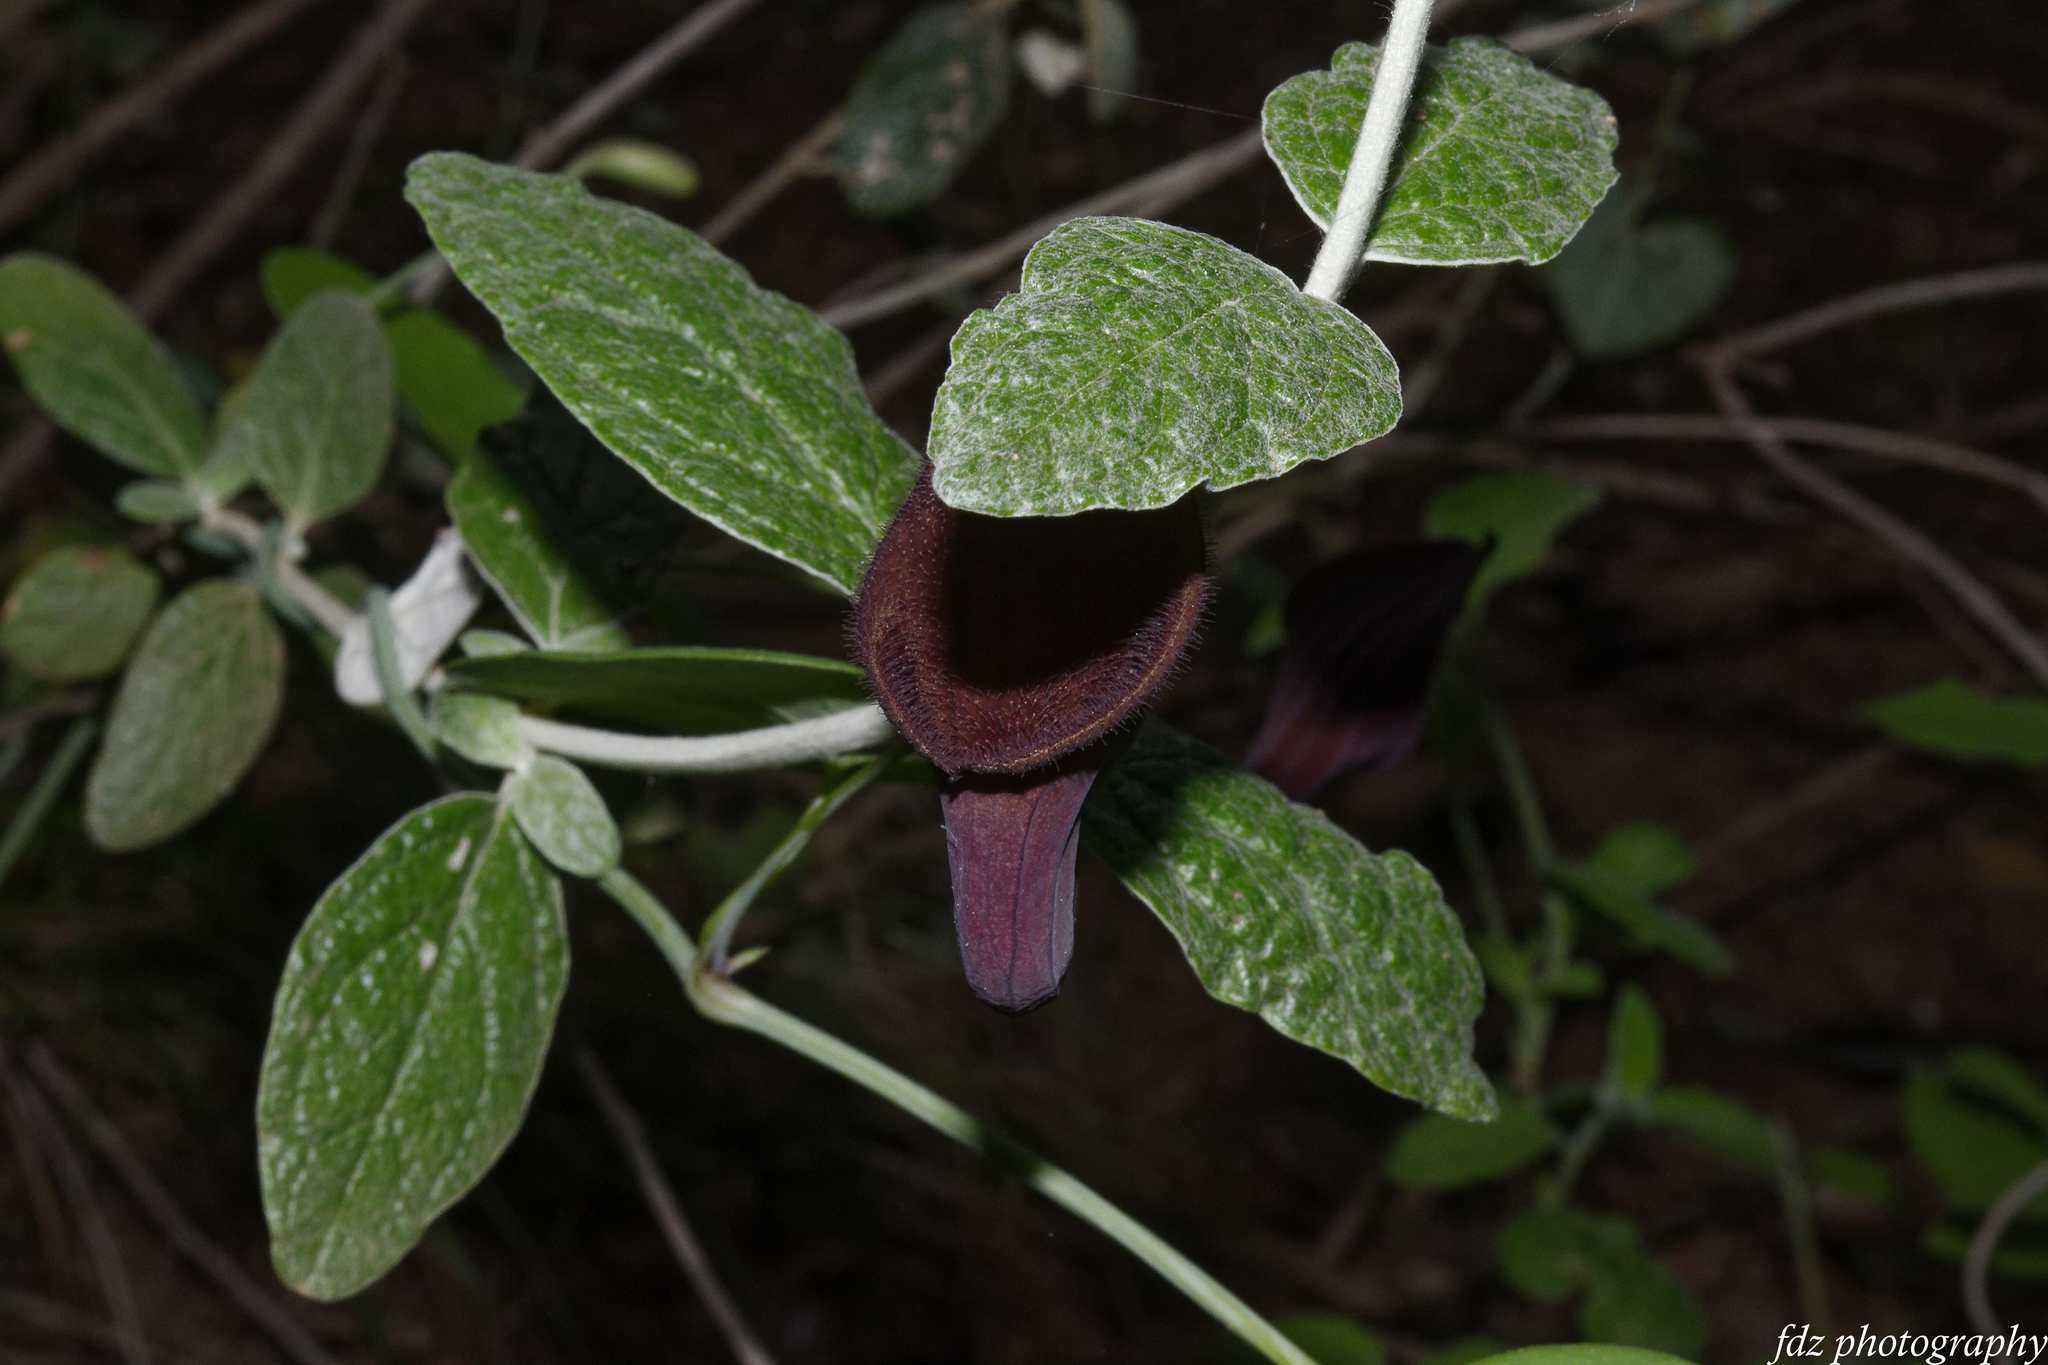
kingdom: Plantae
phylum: Tracheophyta
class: Magnoliopsida
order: Piperales
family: Aristolochiaceae
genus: Aristolochia
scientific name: Aristolochia baetica
